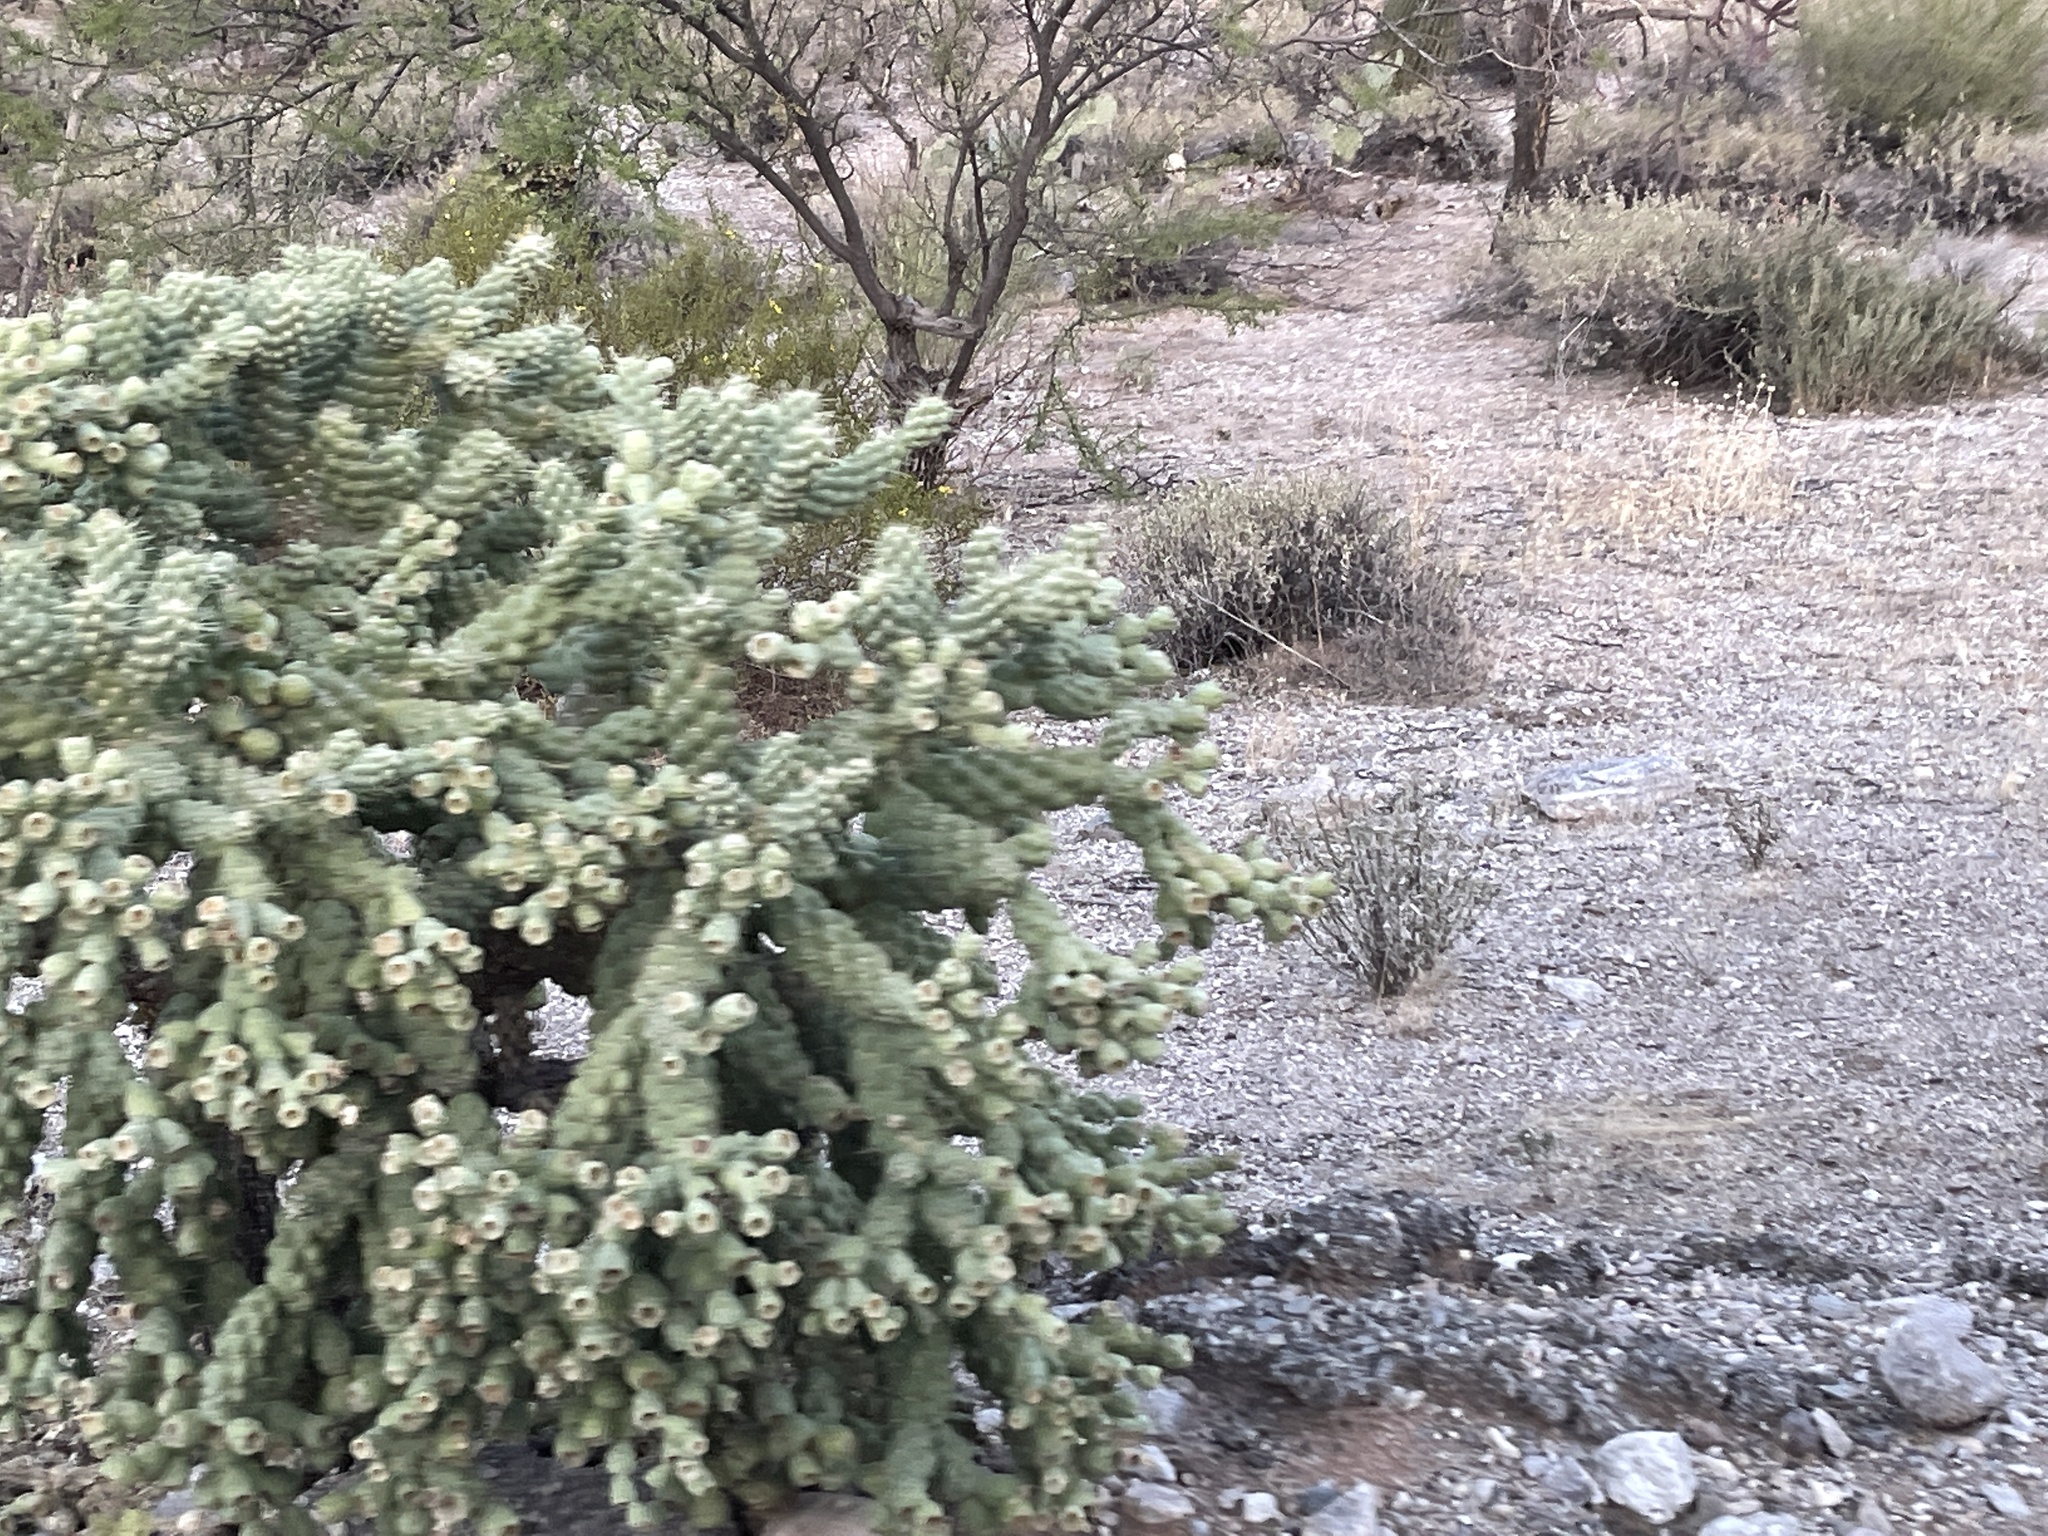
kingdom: Plantae
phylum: Tracheophyta
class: Magnoliopsida
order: Caryophyllales
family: Cactaceae
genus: Cylindropuntia
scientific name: Cylindropuntia fulgida
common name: Jumping cholla
